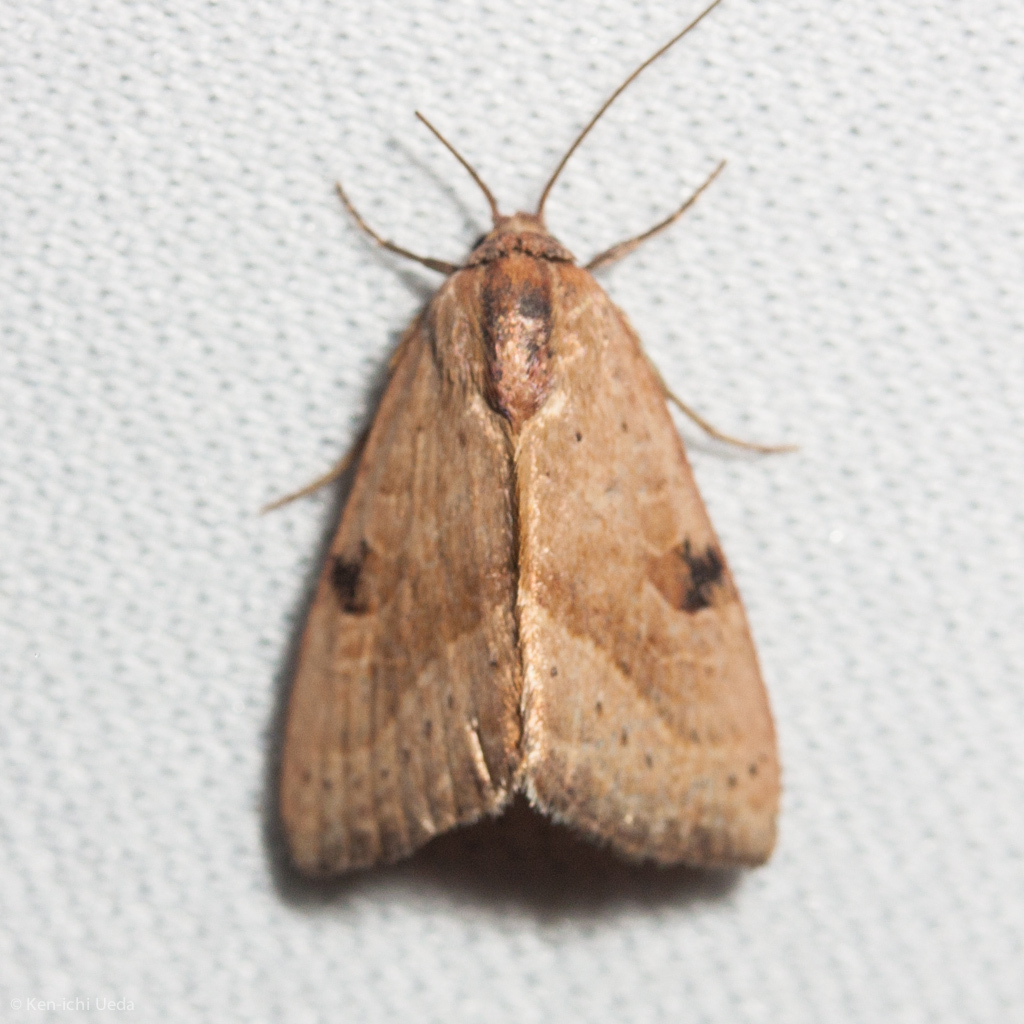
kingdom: Animalia
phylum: Arthropoda
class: Insecta
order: Lepidoptera
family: Noctuidae
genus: Galgula
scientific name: Galgula partita
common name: Wedgeling
